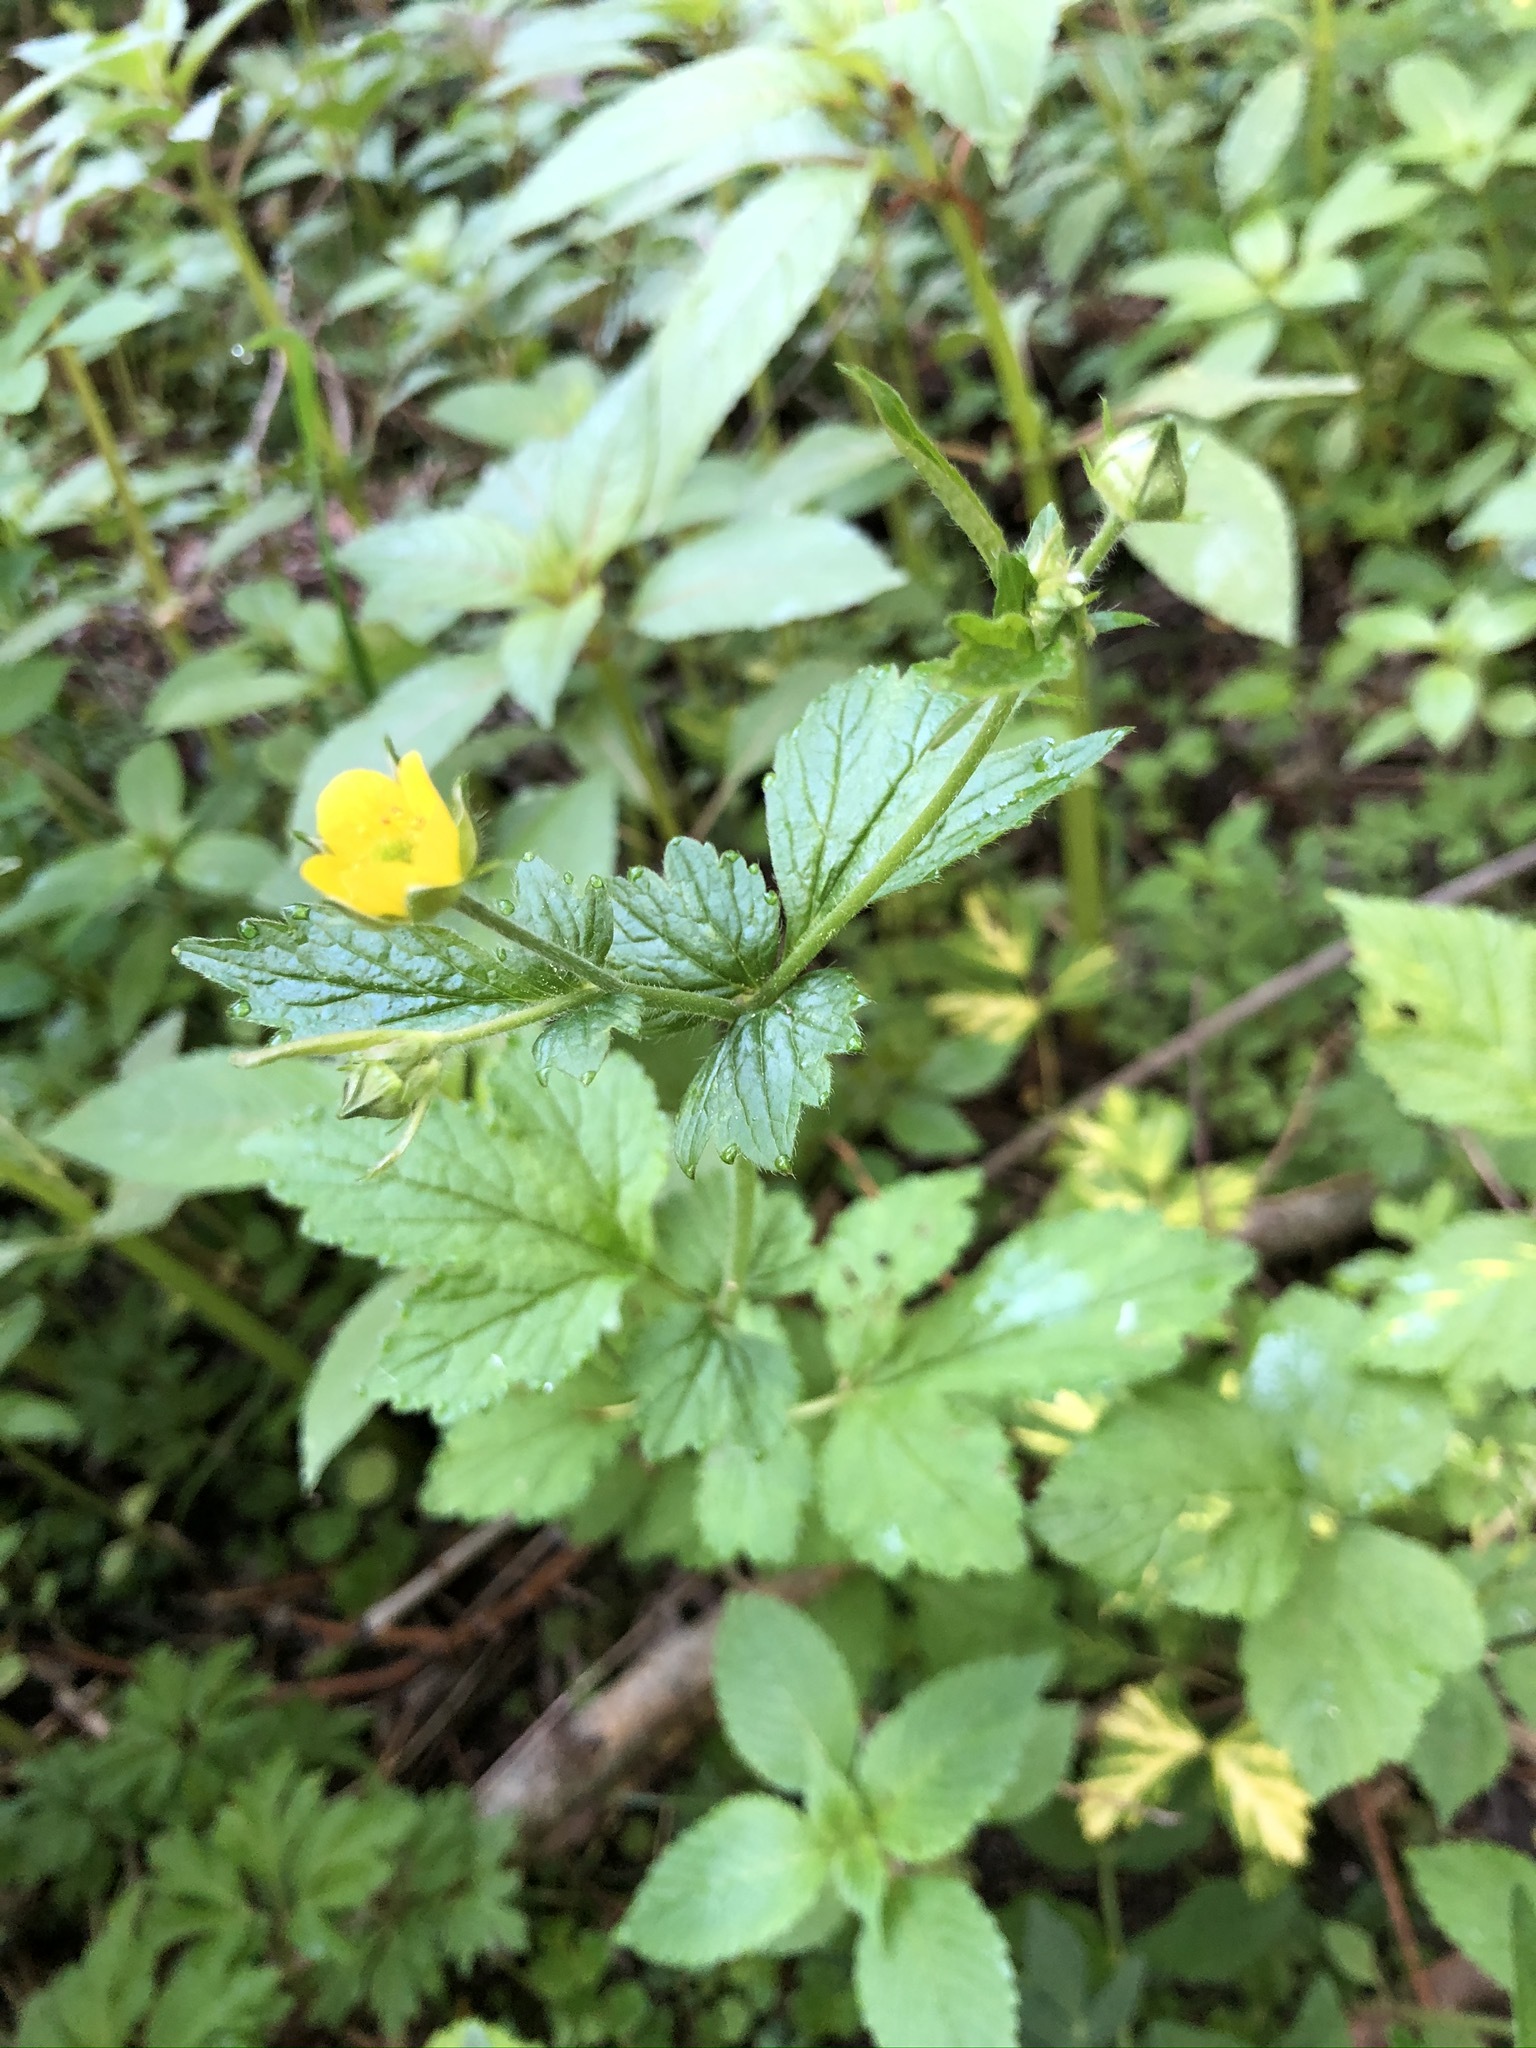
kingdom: Plantae
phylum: Tracheophyta
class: Magnoliopsida
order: Rosales
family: Rosaceae
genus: Geum
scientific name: Geum urbanum
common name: Wood avens
